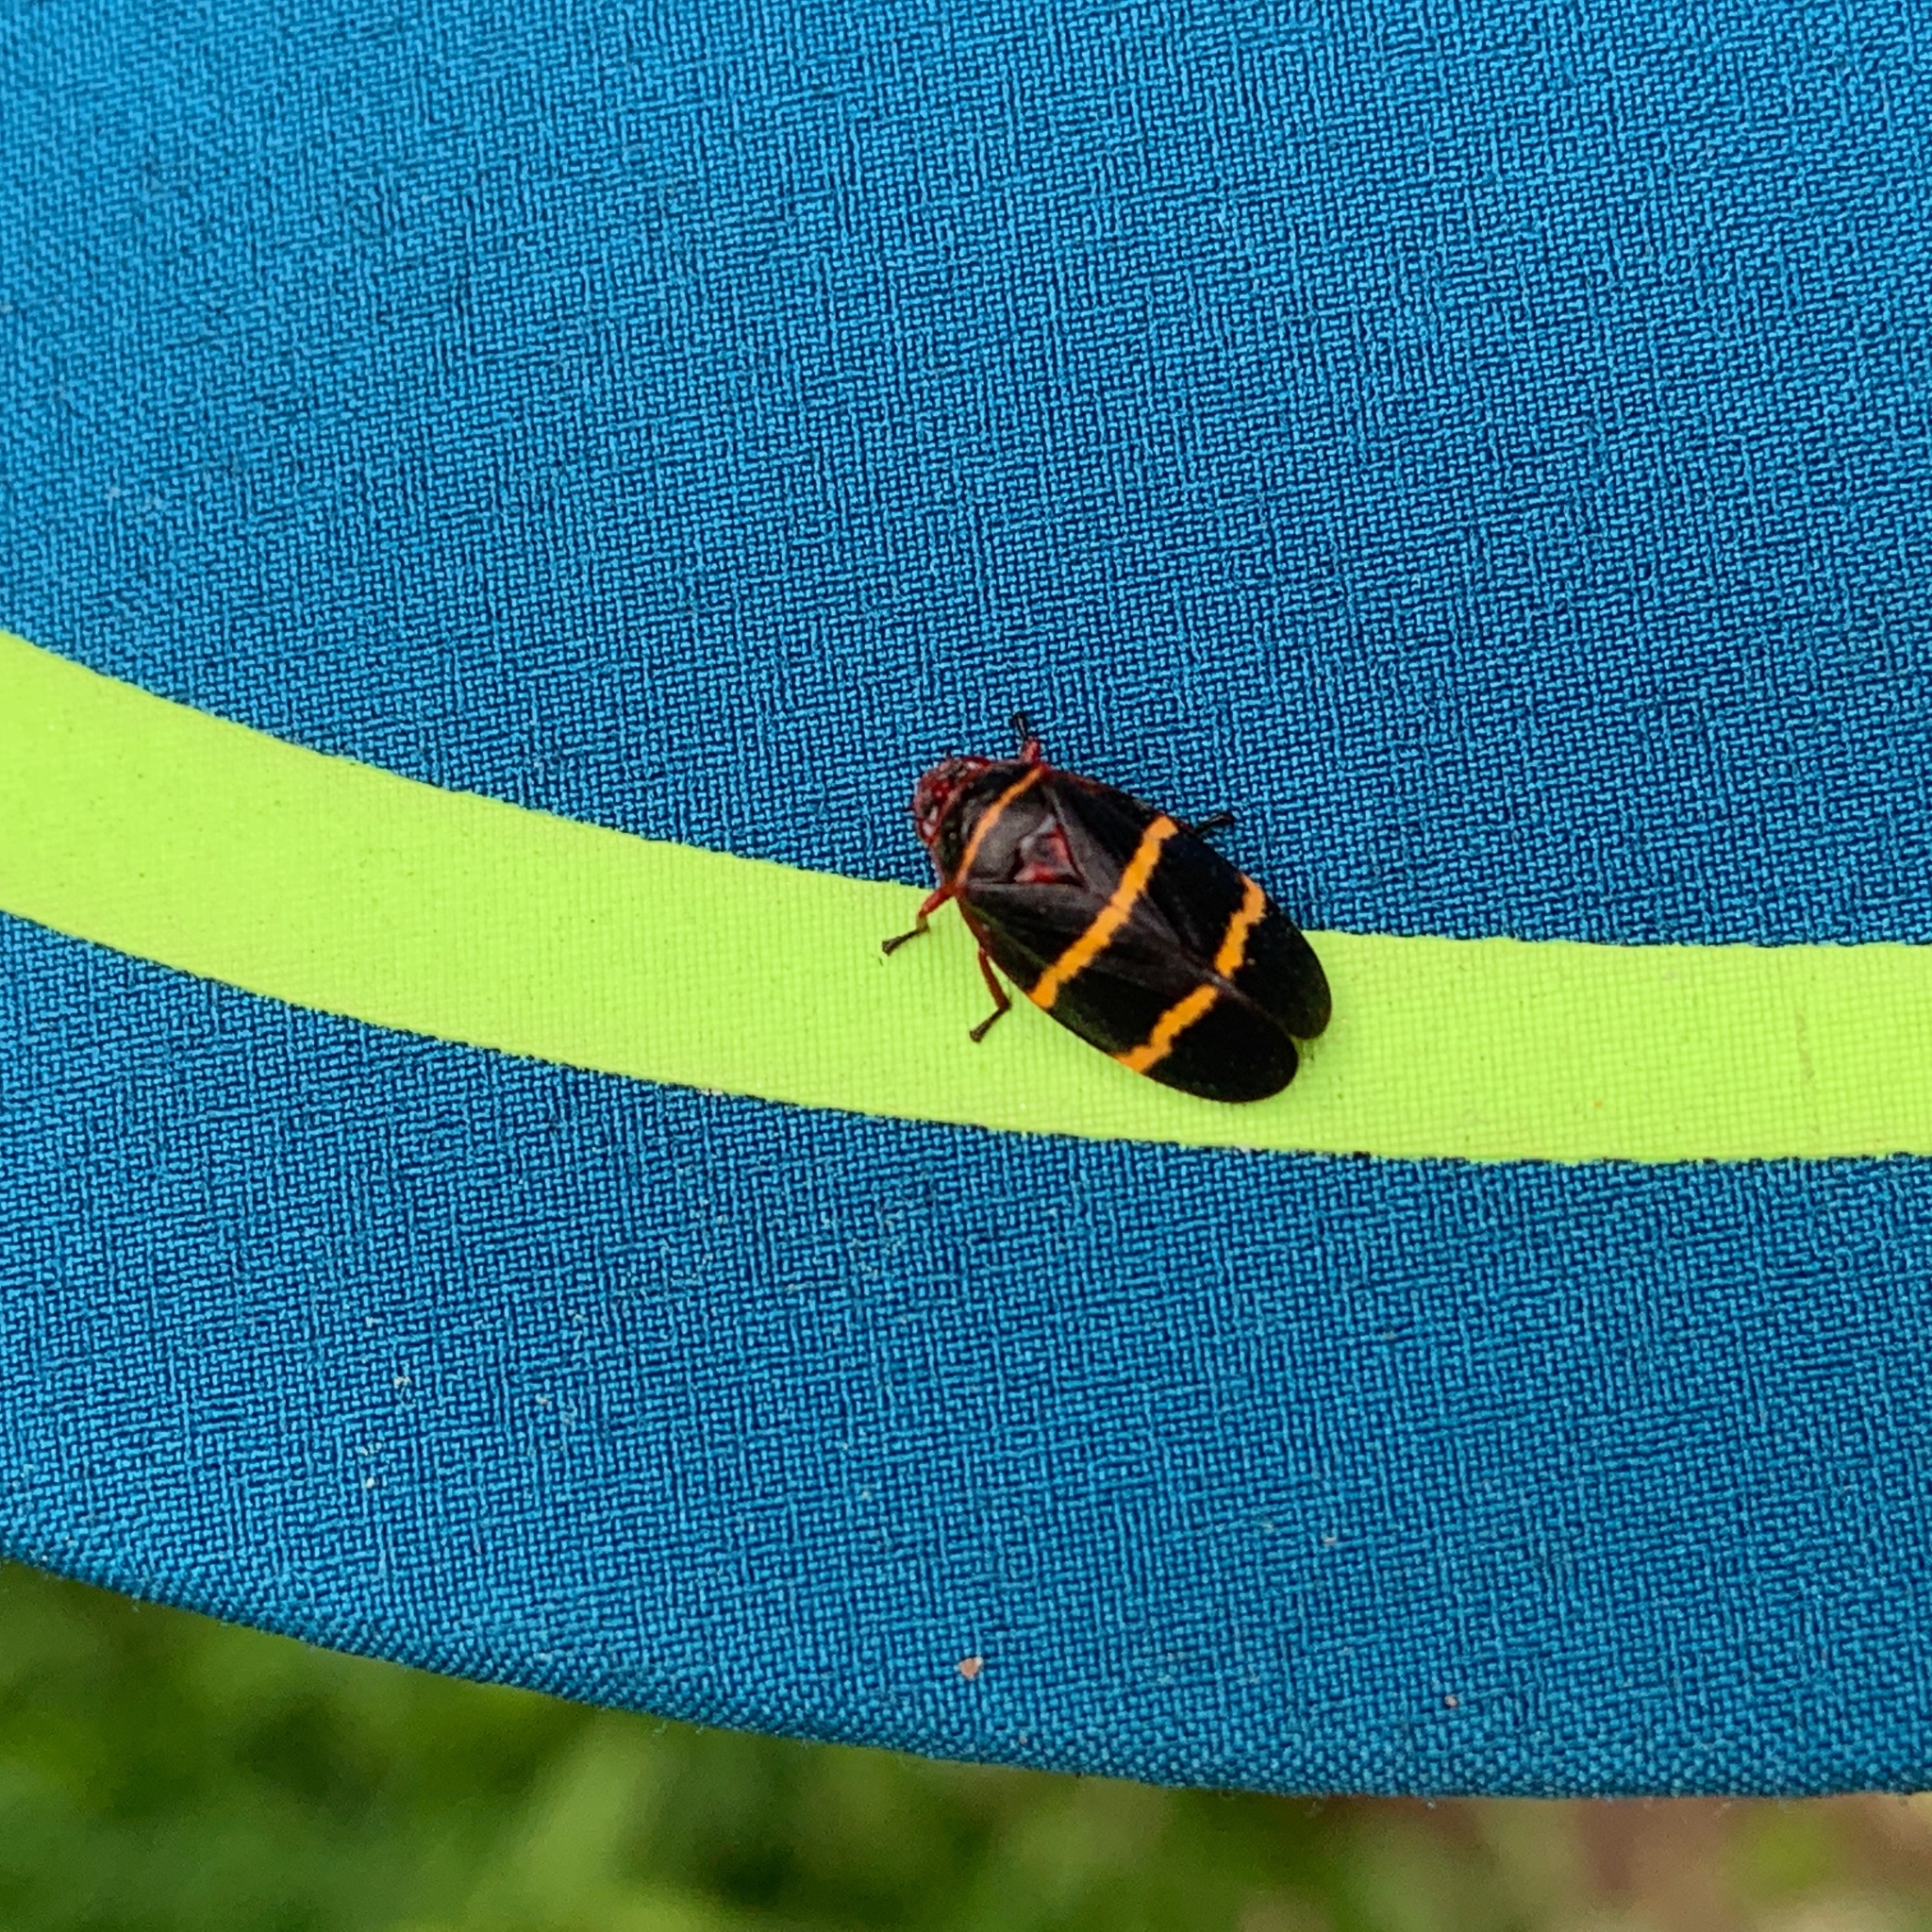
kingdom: Animalia
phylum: Arthropoda
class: Insecta
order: Hemiptera
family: Cercopidae
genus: Prosapia
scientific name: Prosapia bicincta
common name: Twolined spittlebug
